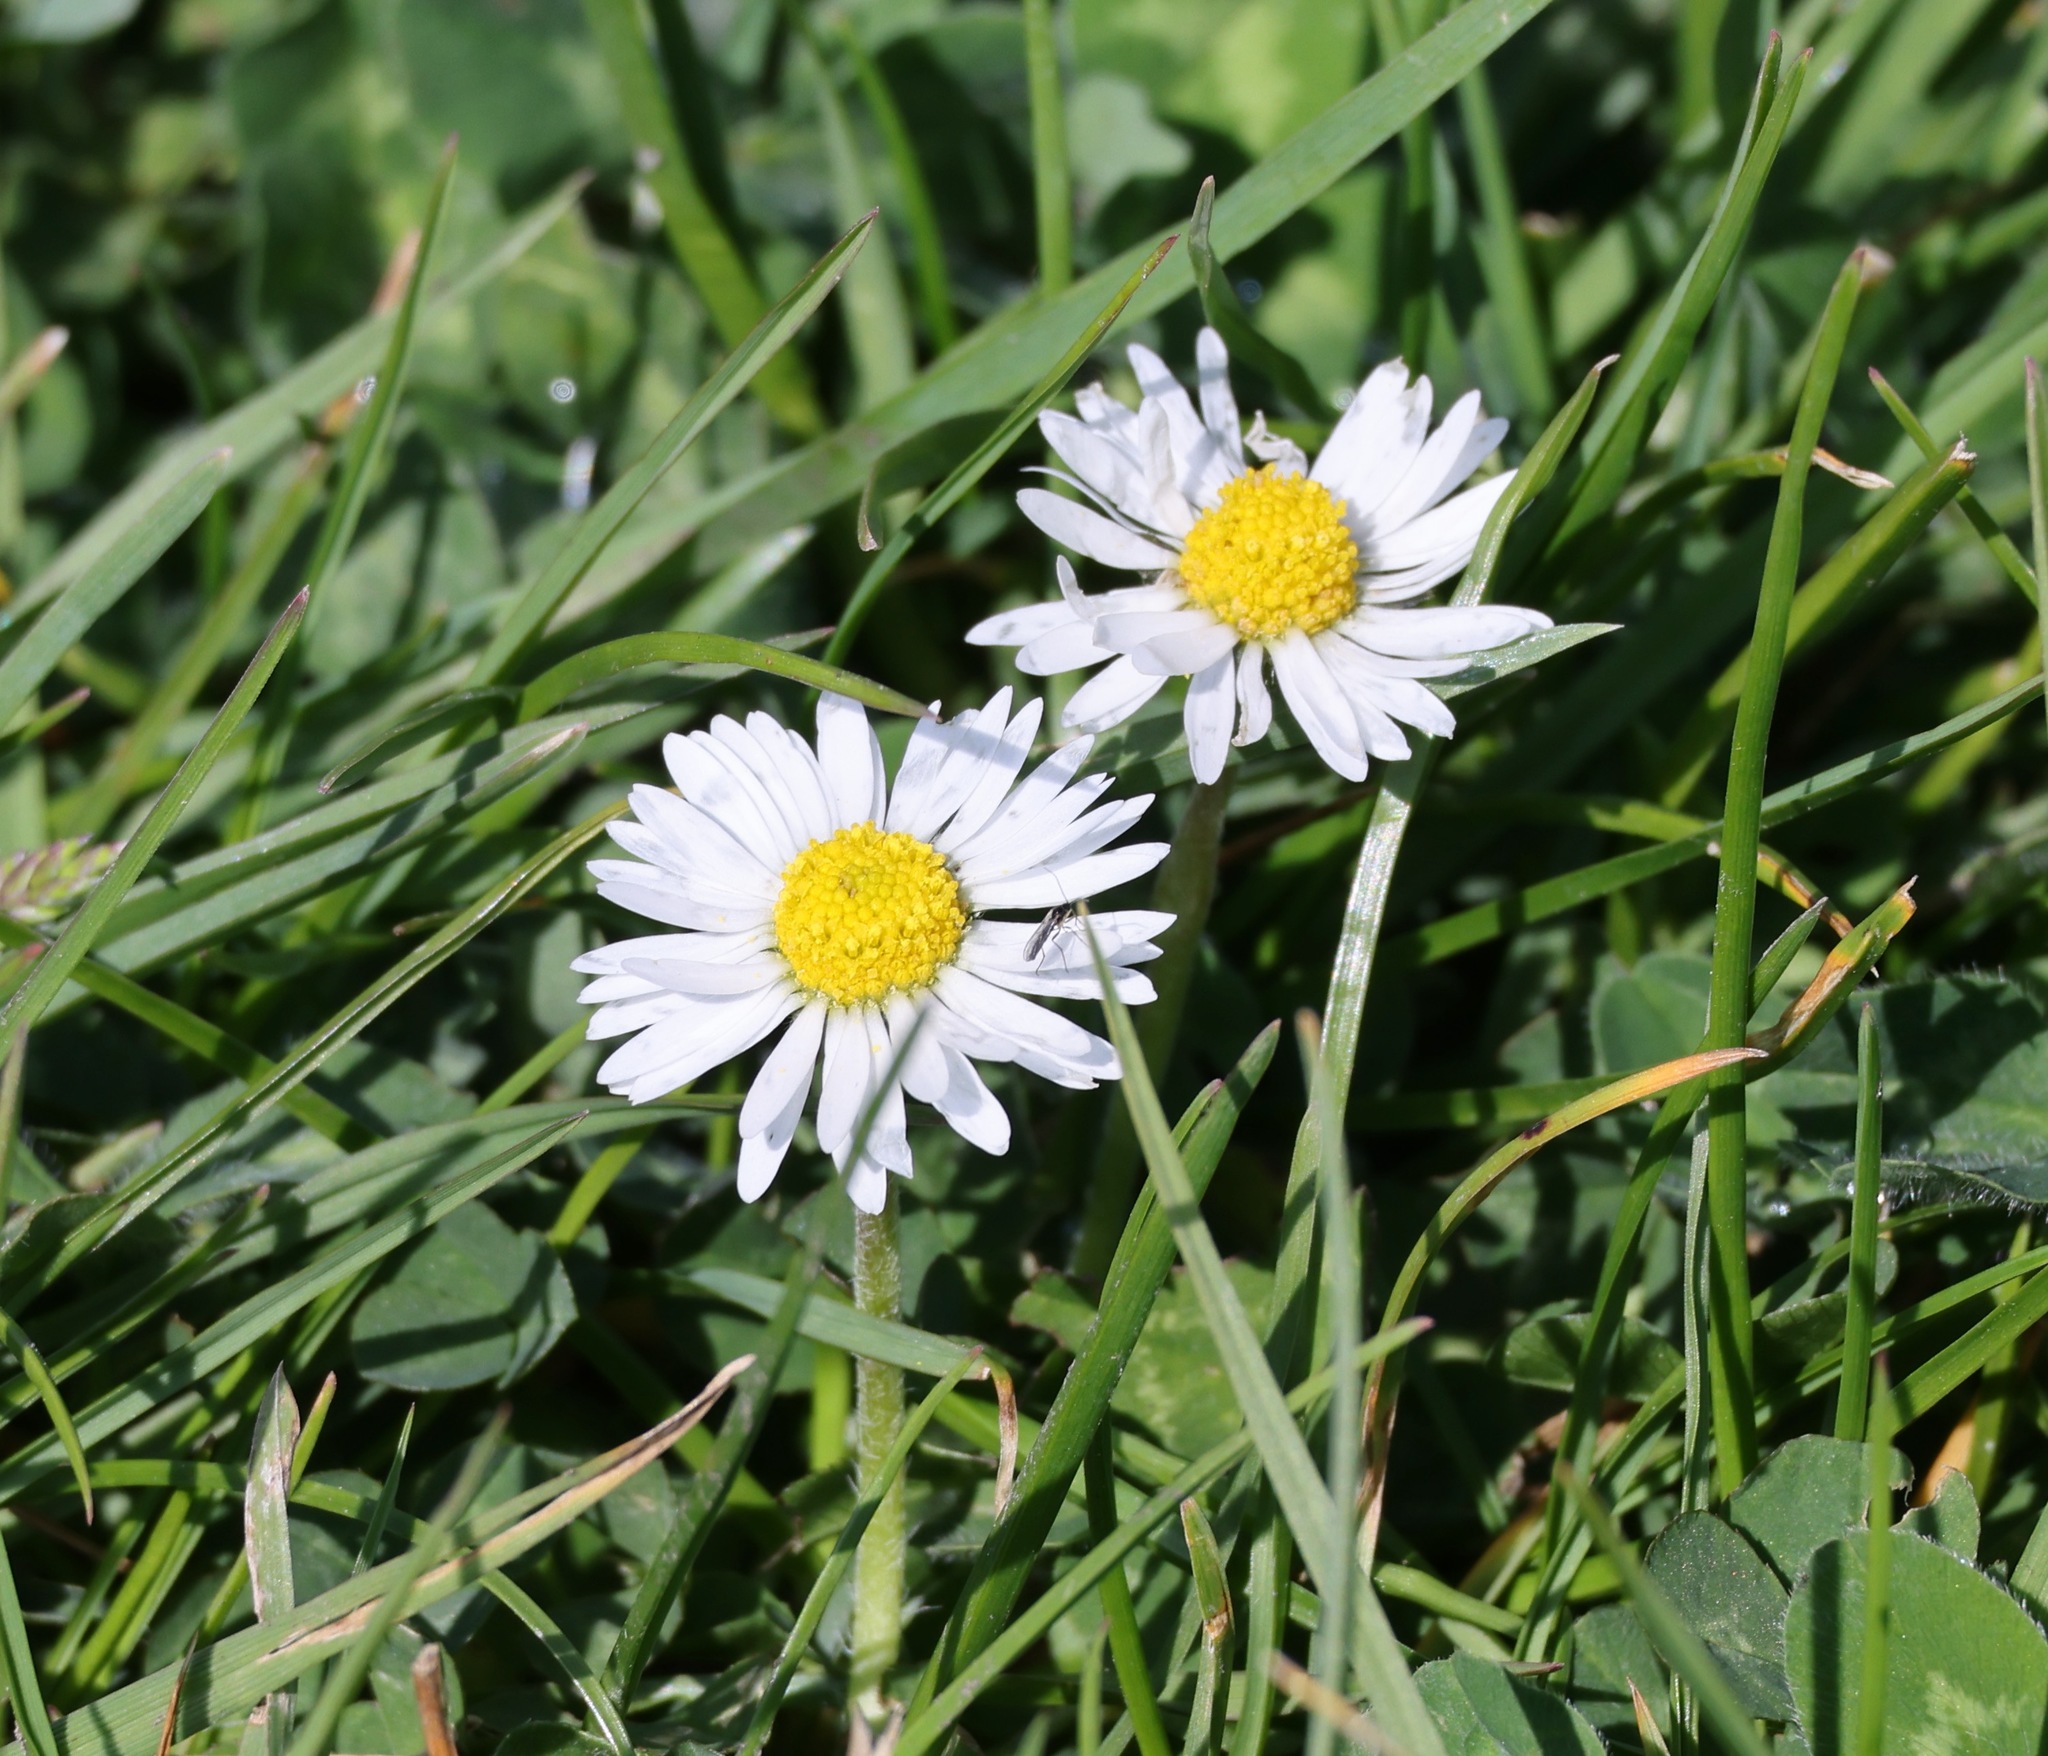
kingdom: Plantae
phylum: Tracheophyta
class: Magnoliopsida
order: Asterales
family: Asteraceae
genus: Bellis
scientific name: Bellis perennis
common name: Lawndaisy
